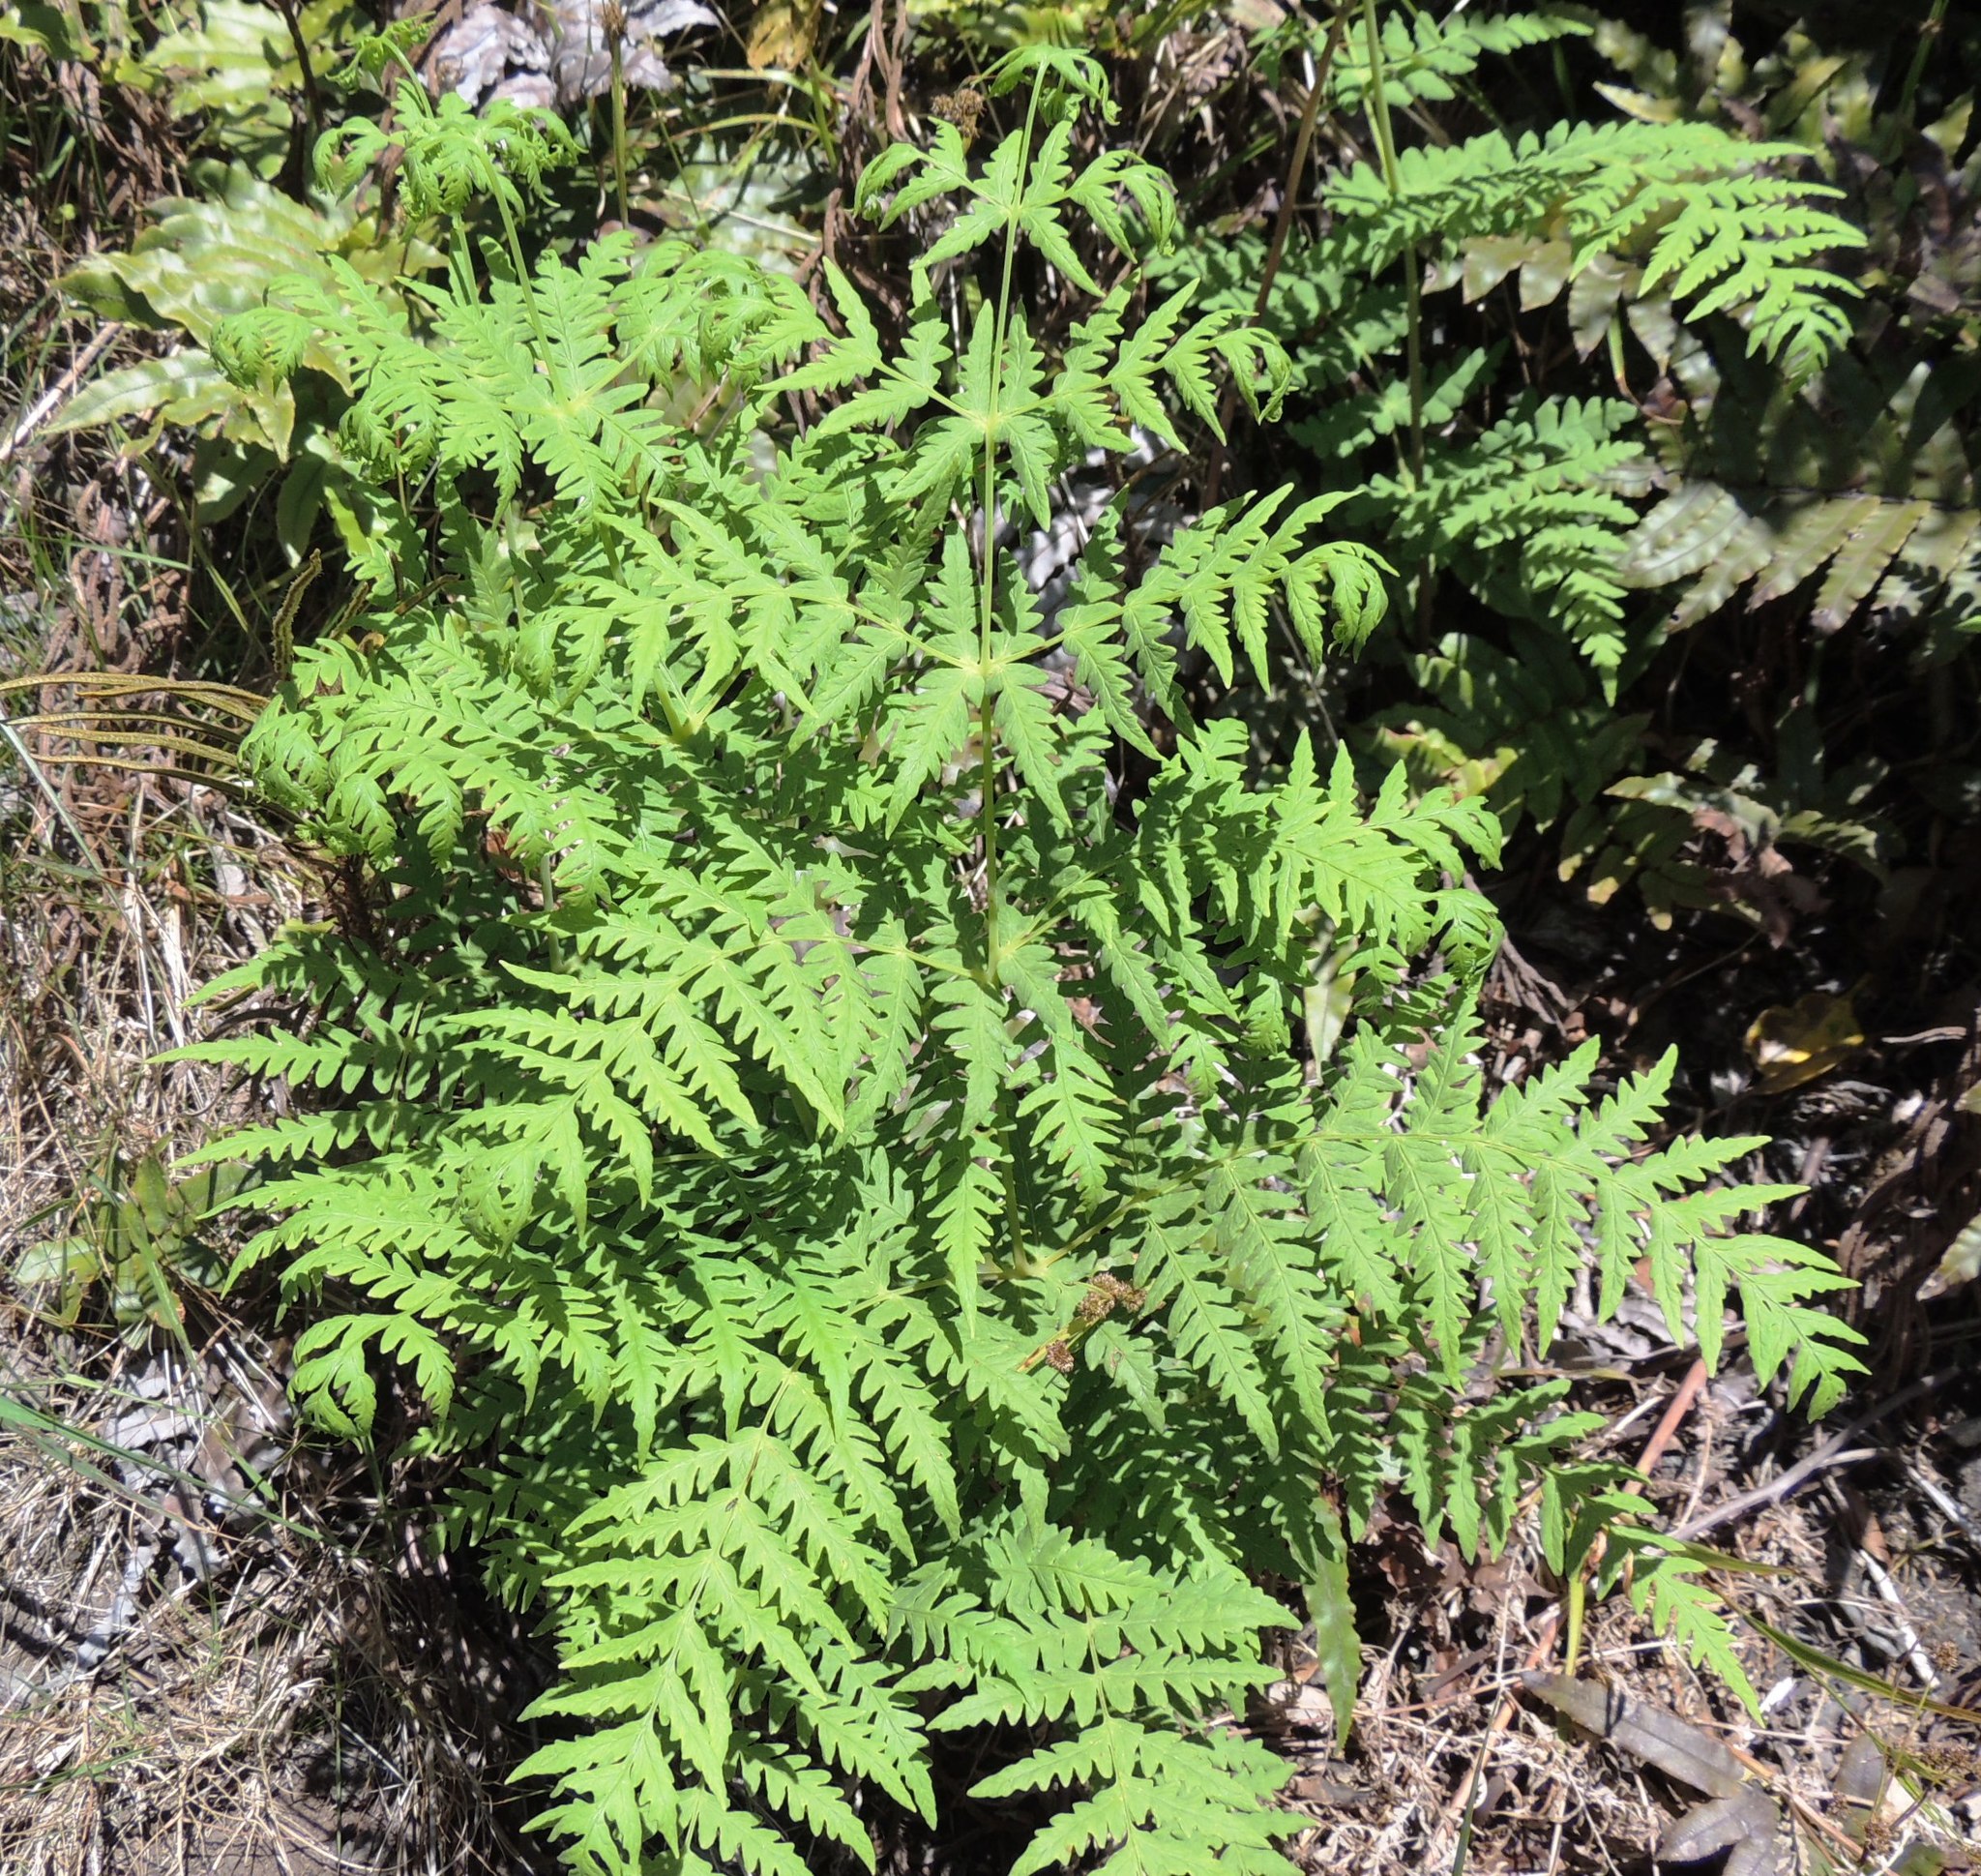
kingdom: Plantae
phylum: Tracheophyta
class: Polypodiopsida
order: Polypodiales
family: Dennstaedtiaceae
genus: Histiopteris
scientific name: Histiopteris incisa
